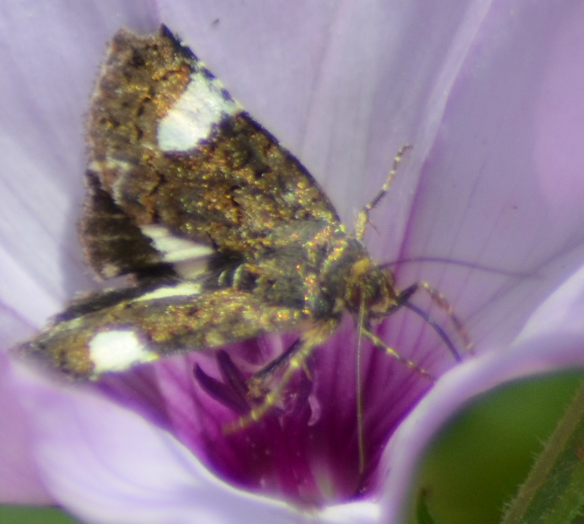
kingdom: Animalia
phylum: Arthropoda
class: Insecta
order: Lepidoptera
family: Erebidae
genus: Tyta
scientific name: Tyta luctuosa
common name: Four-spotted
